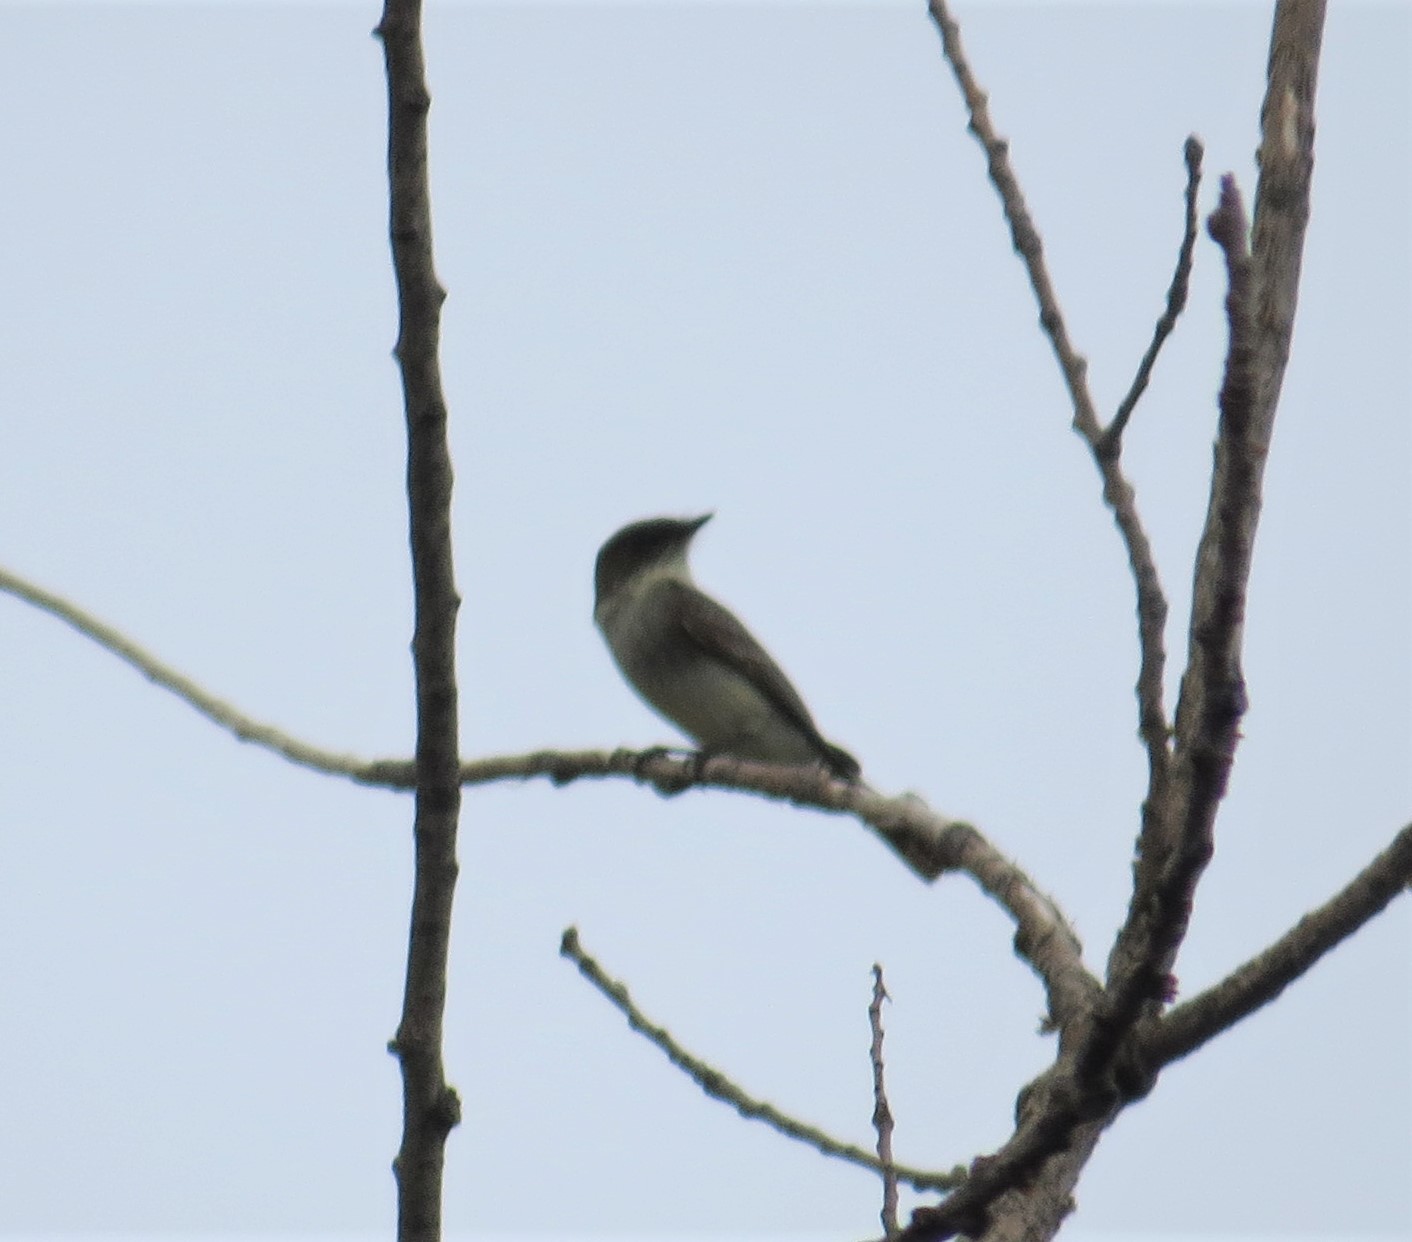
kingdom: Animalia
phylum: Chordata
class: Aves
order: Passeriformes
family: Tyrannidae
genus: Sayornis
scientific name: Sayornis phoebe
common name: Eastern phoebe
